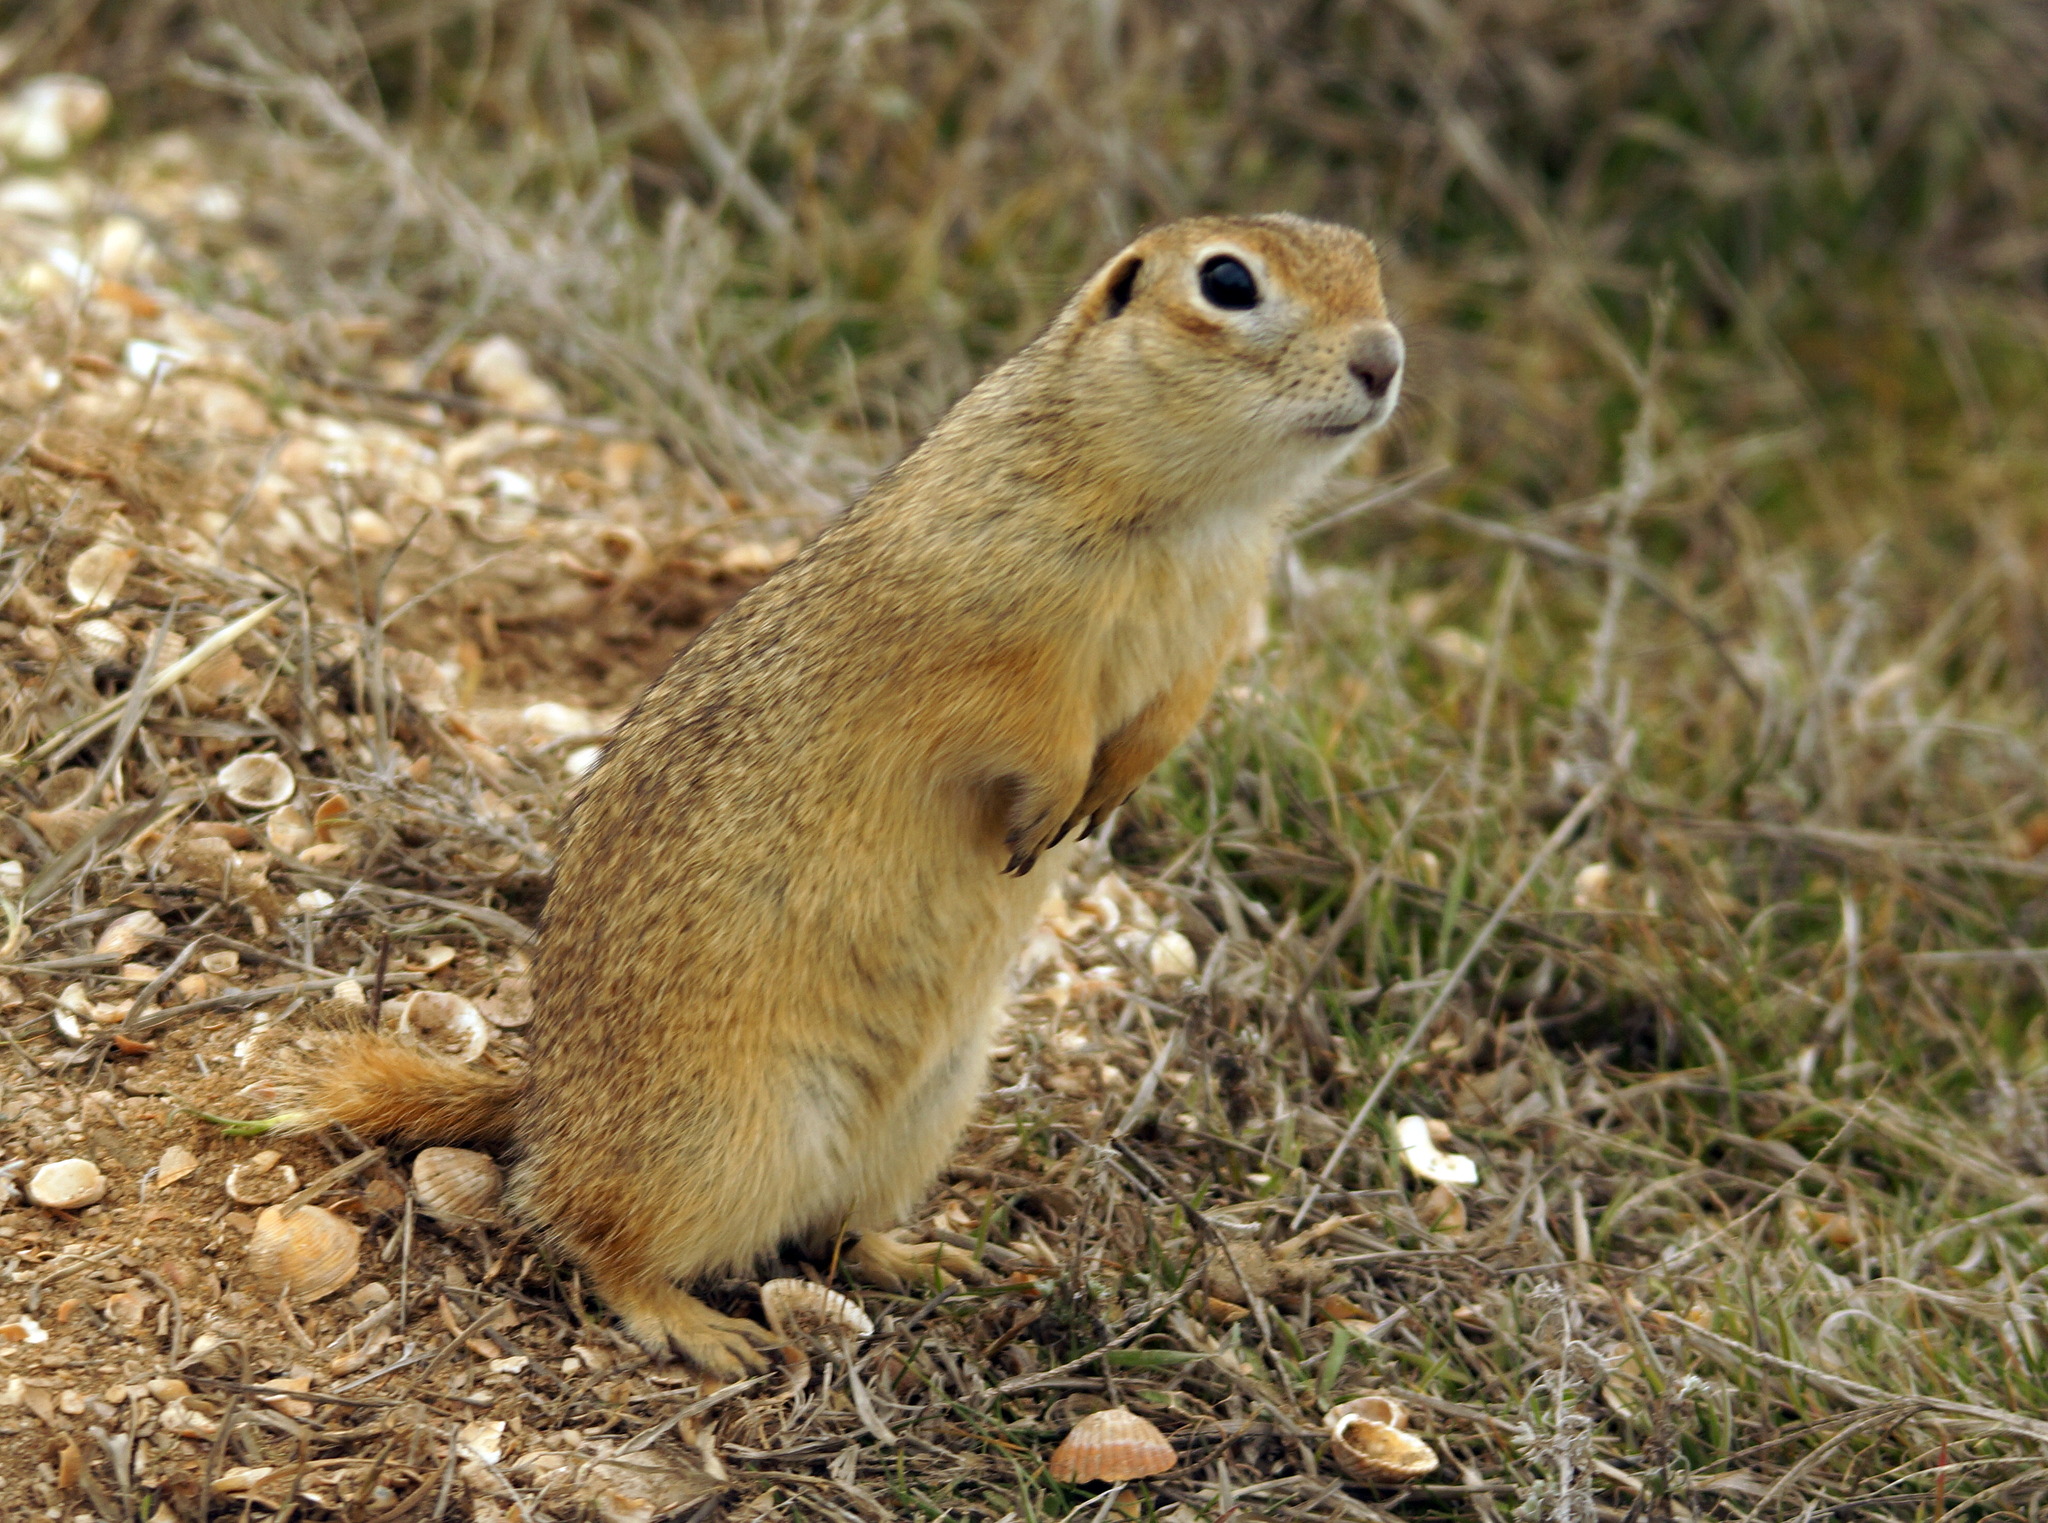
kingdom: Animalia
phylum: Chordata
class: Mammalia
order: Rodentia
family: Sciuridae
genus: Spermophilus
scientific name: Spermophilus pygmaeus
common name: Little ground squirrel
